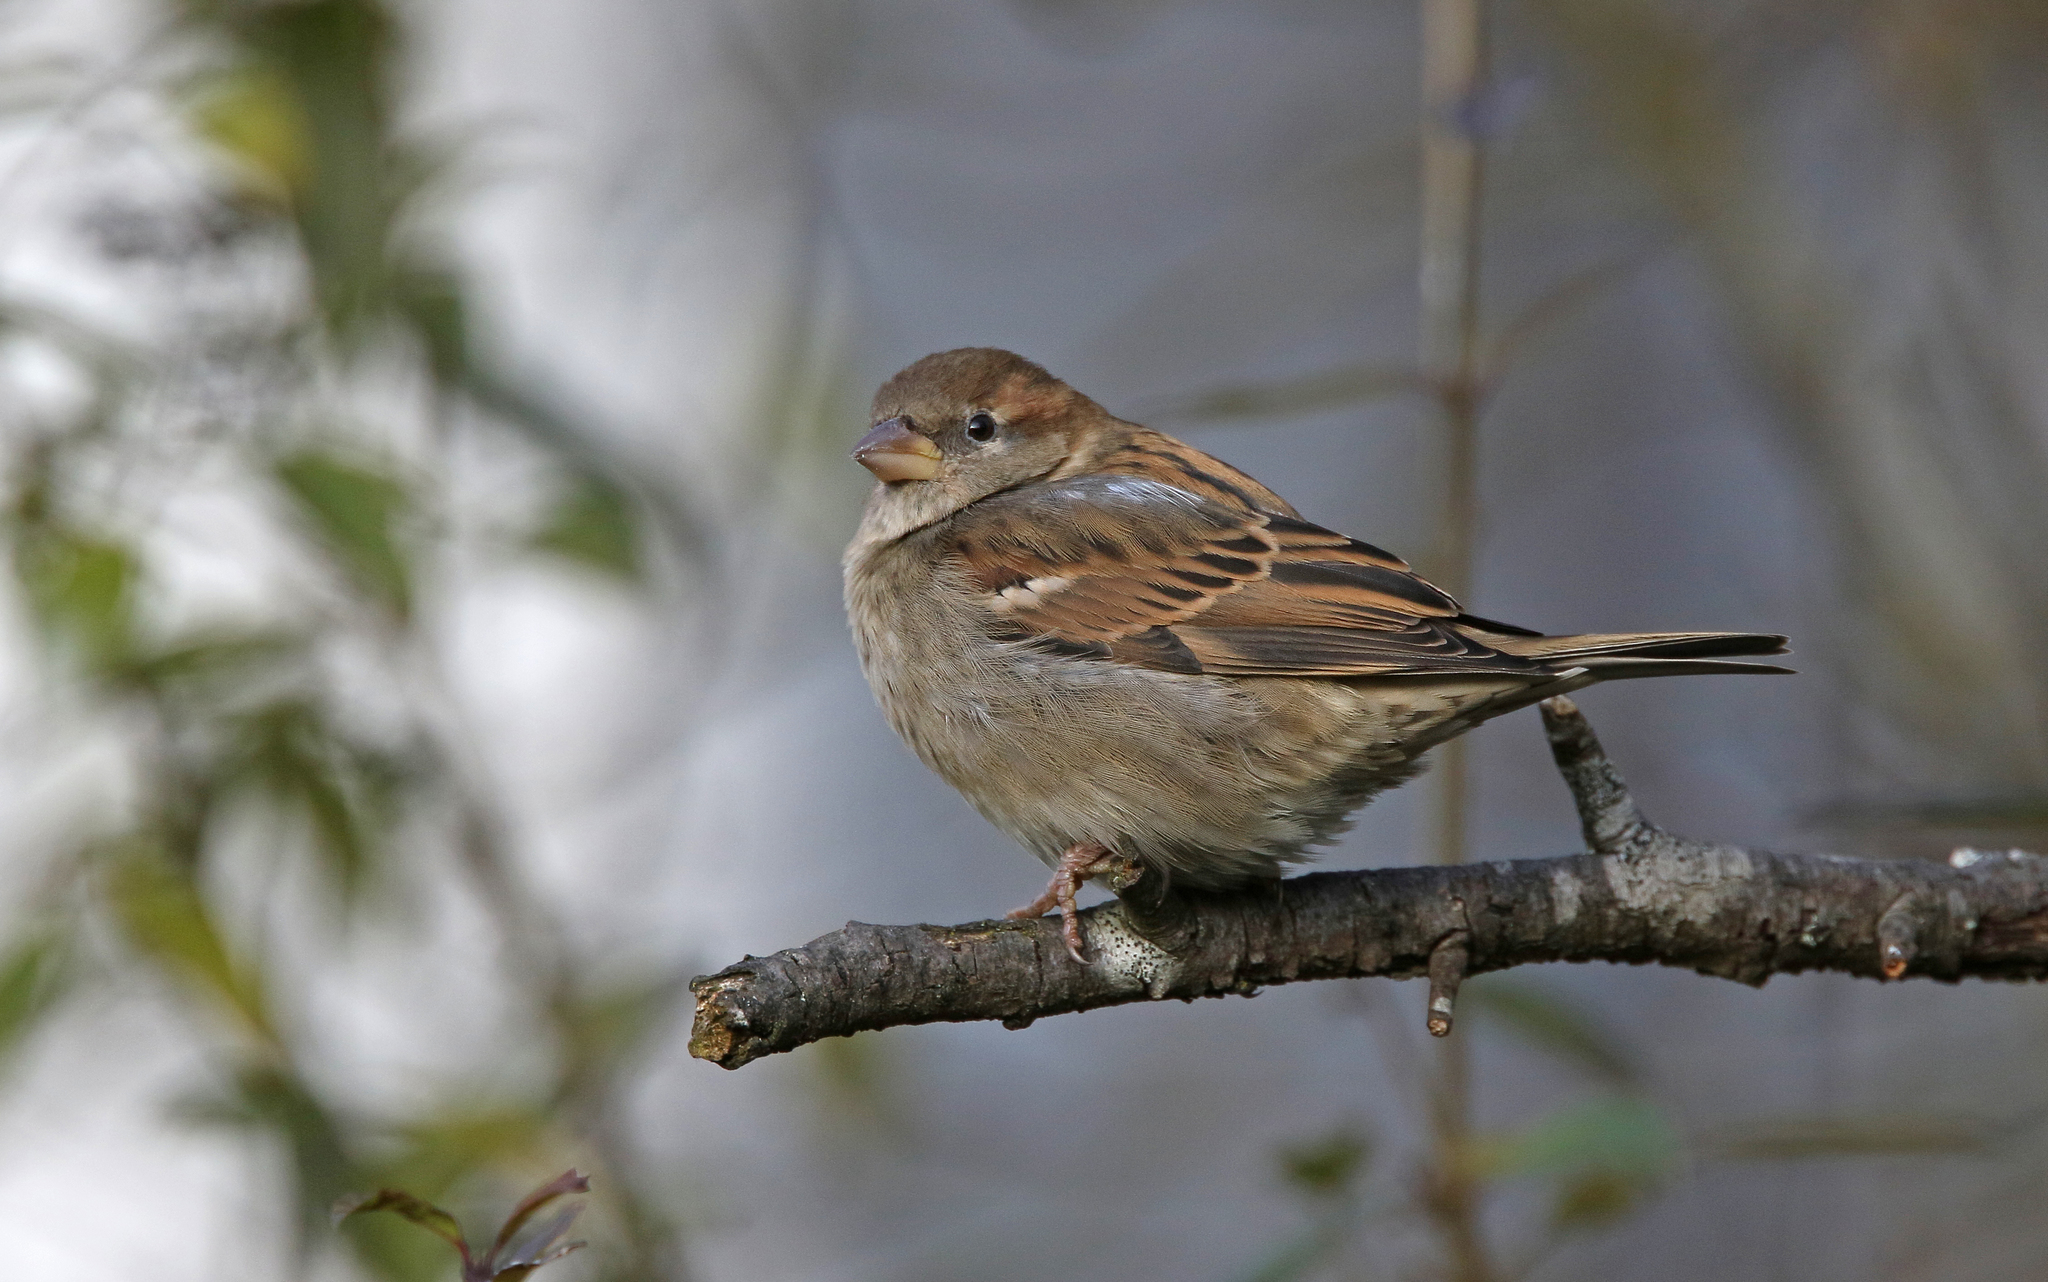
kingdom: Animalia
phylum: Chordata
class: Aves
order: Passeriformes
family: Passeridae
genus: Passer
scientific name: Passer domesticus
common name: House sparrow
